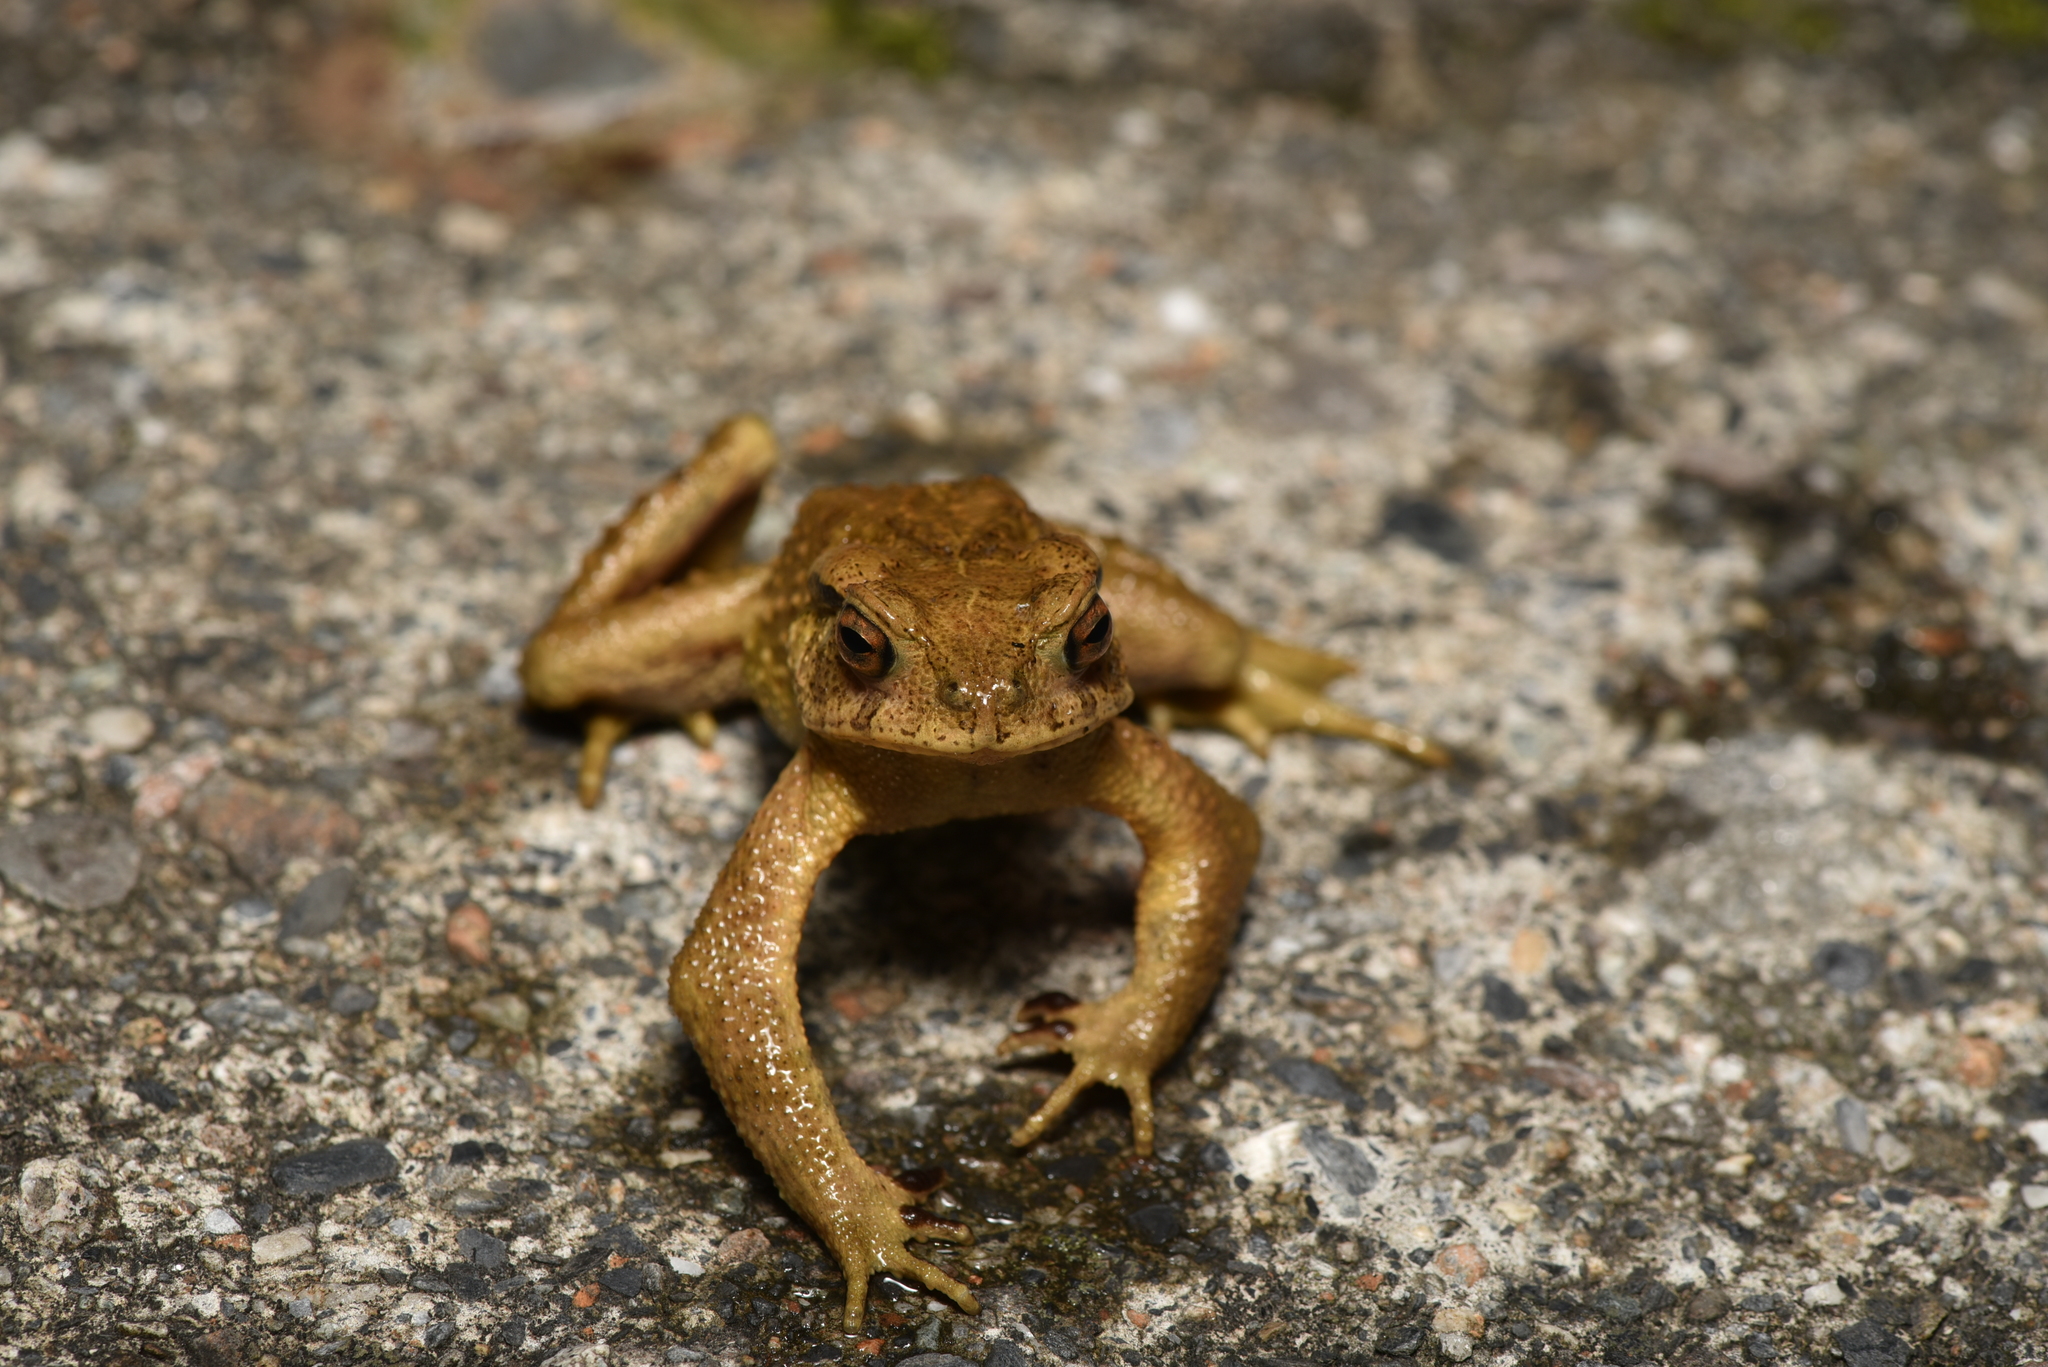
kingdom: Animalia
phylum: Chordata
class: Amphibia
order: Anura
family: Bufonidae
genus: Bufo
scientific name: Bufo bankorensis
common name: Bankor toad
